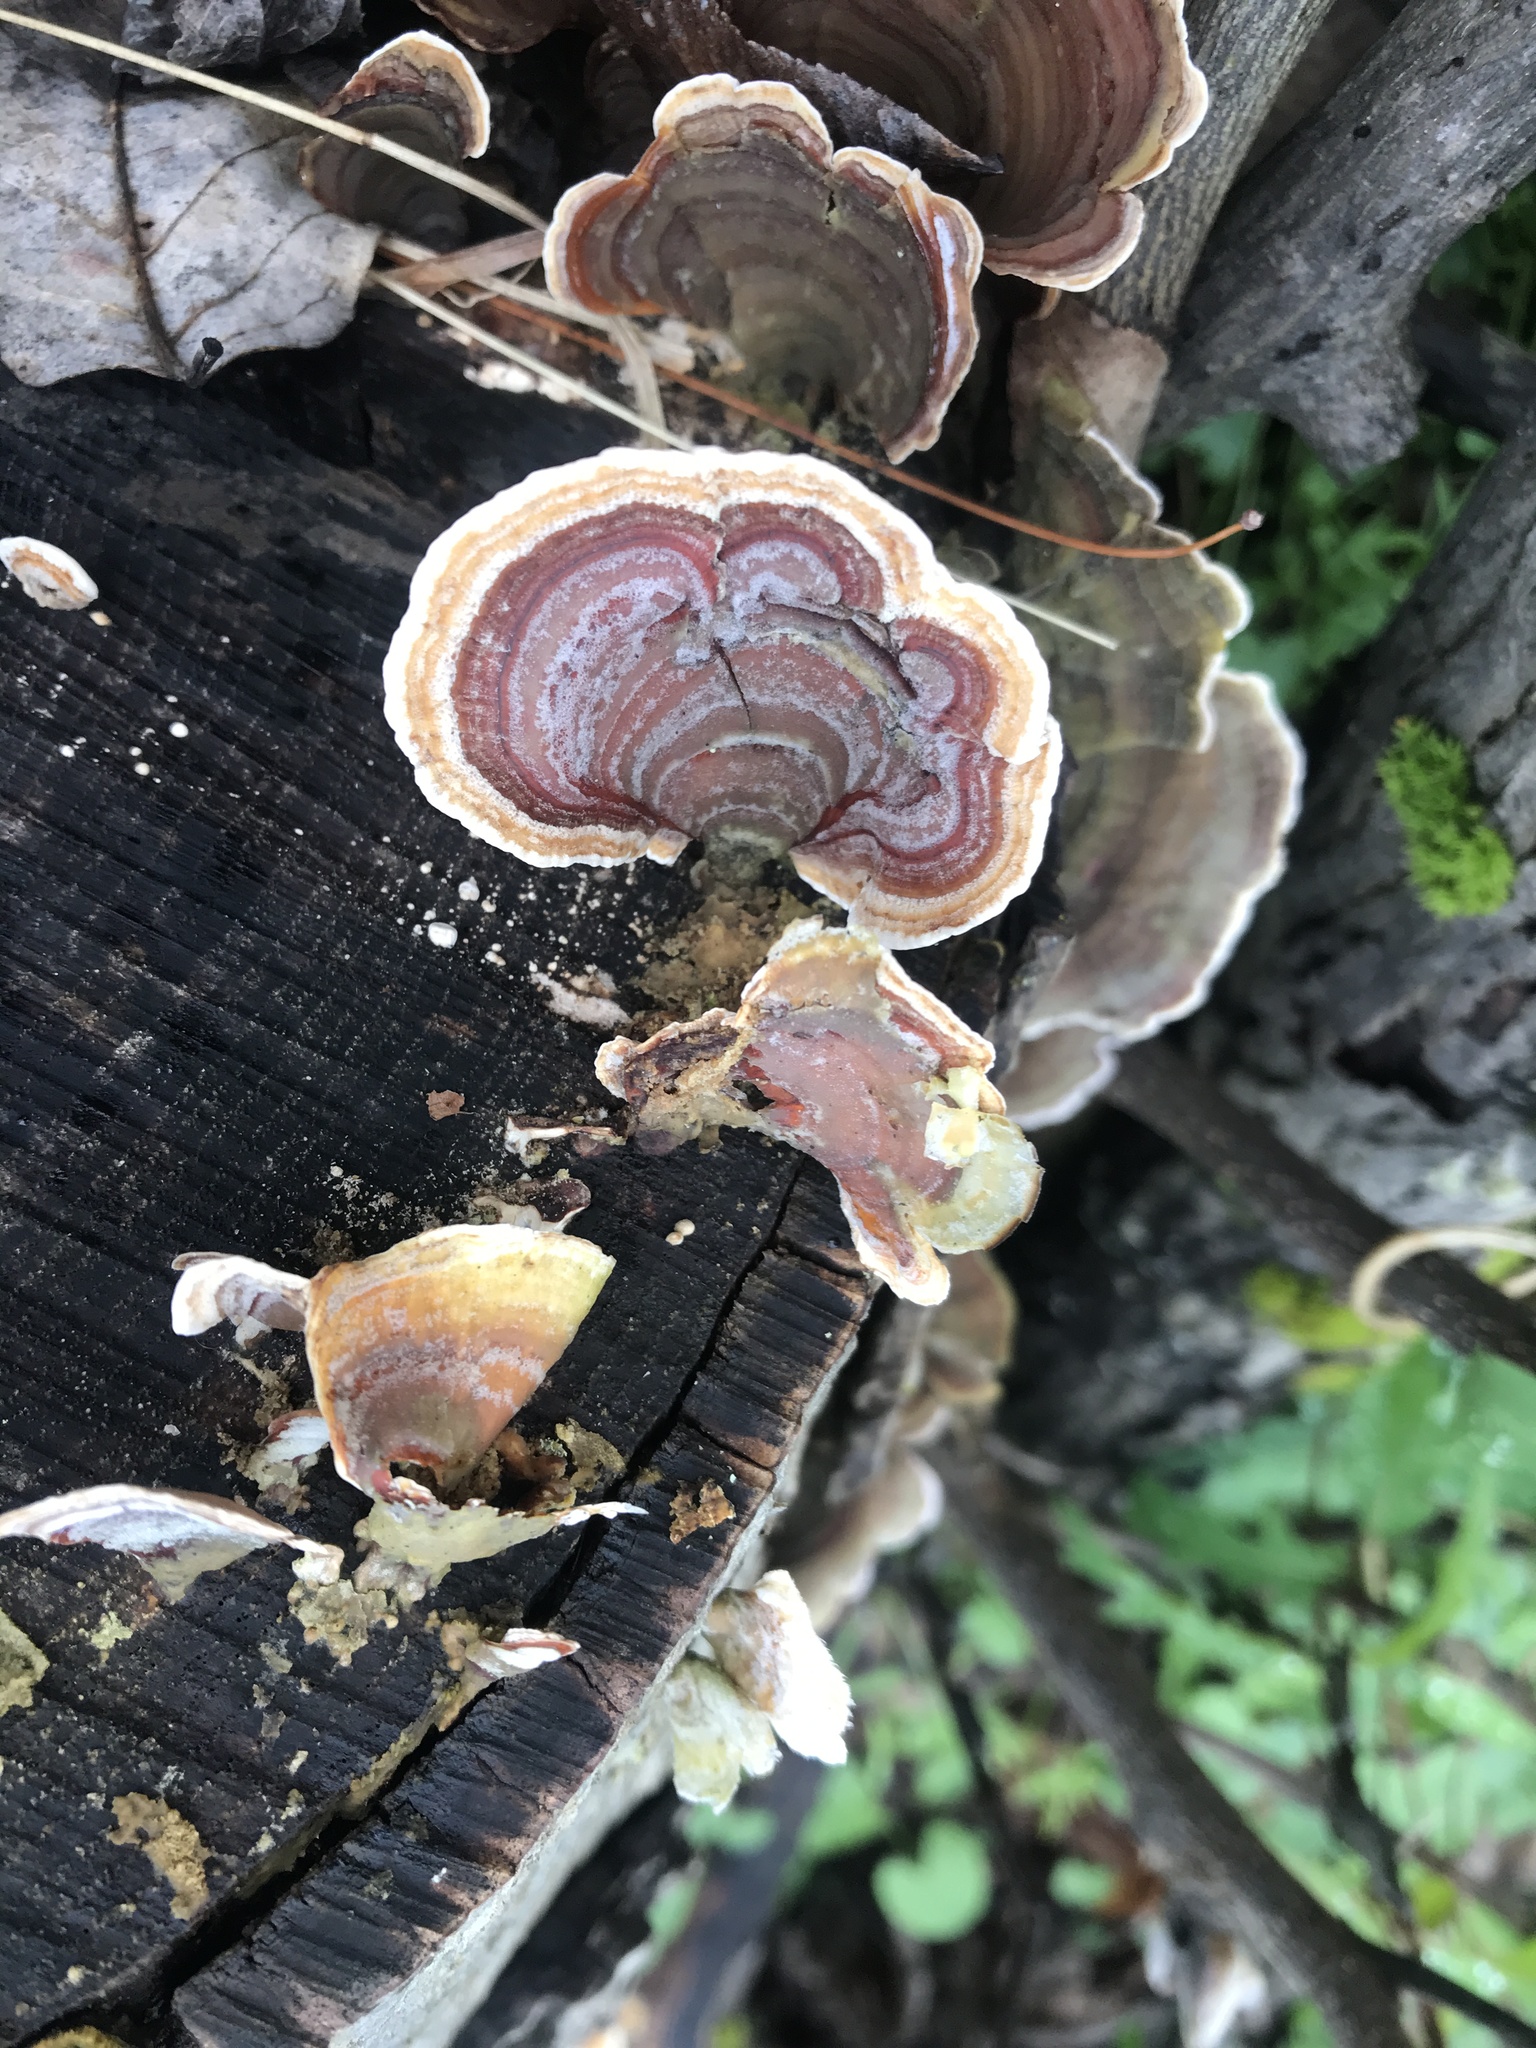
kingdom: Fungi
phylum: Basidiomycota
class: Agaricomycetes
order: Russulales
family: Stereaceae
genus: Stereum
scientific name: Stereum ostrea
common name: False turkeytail
